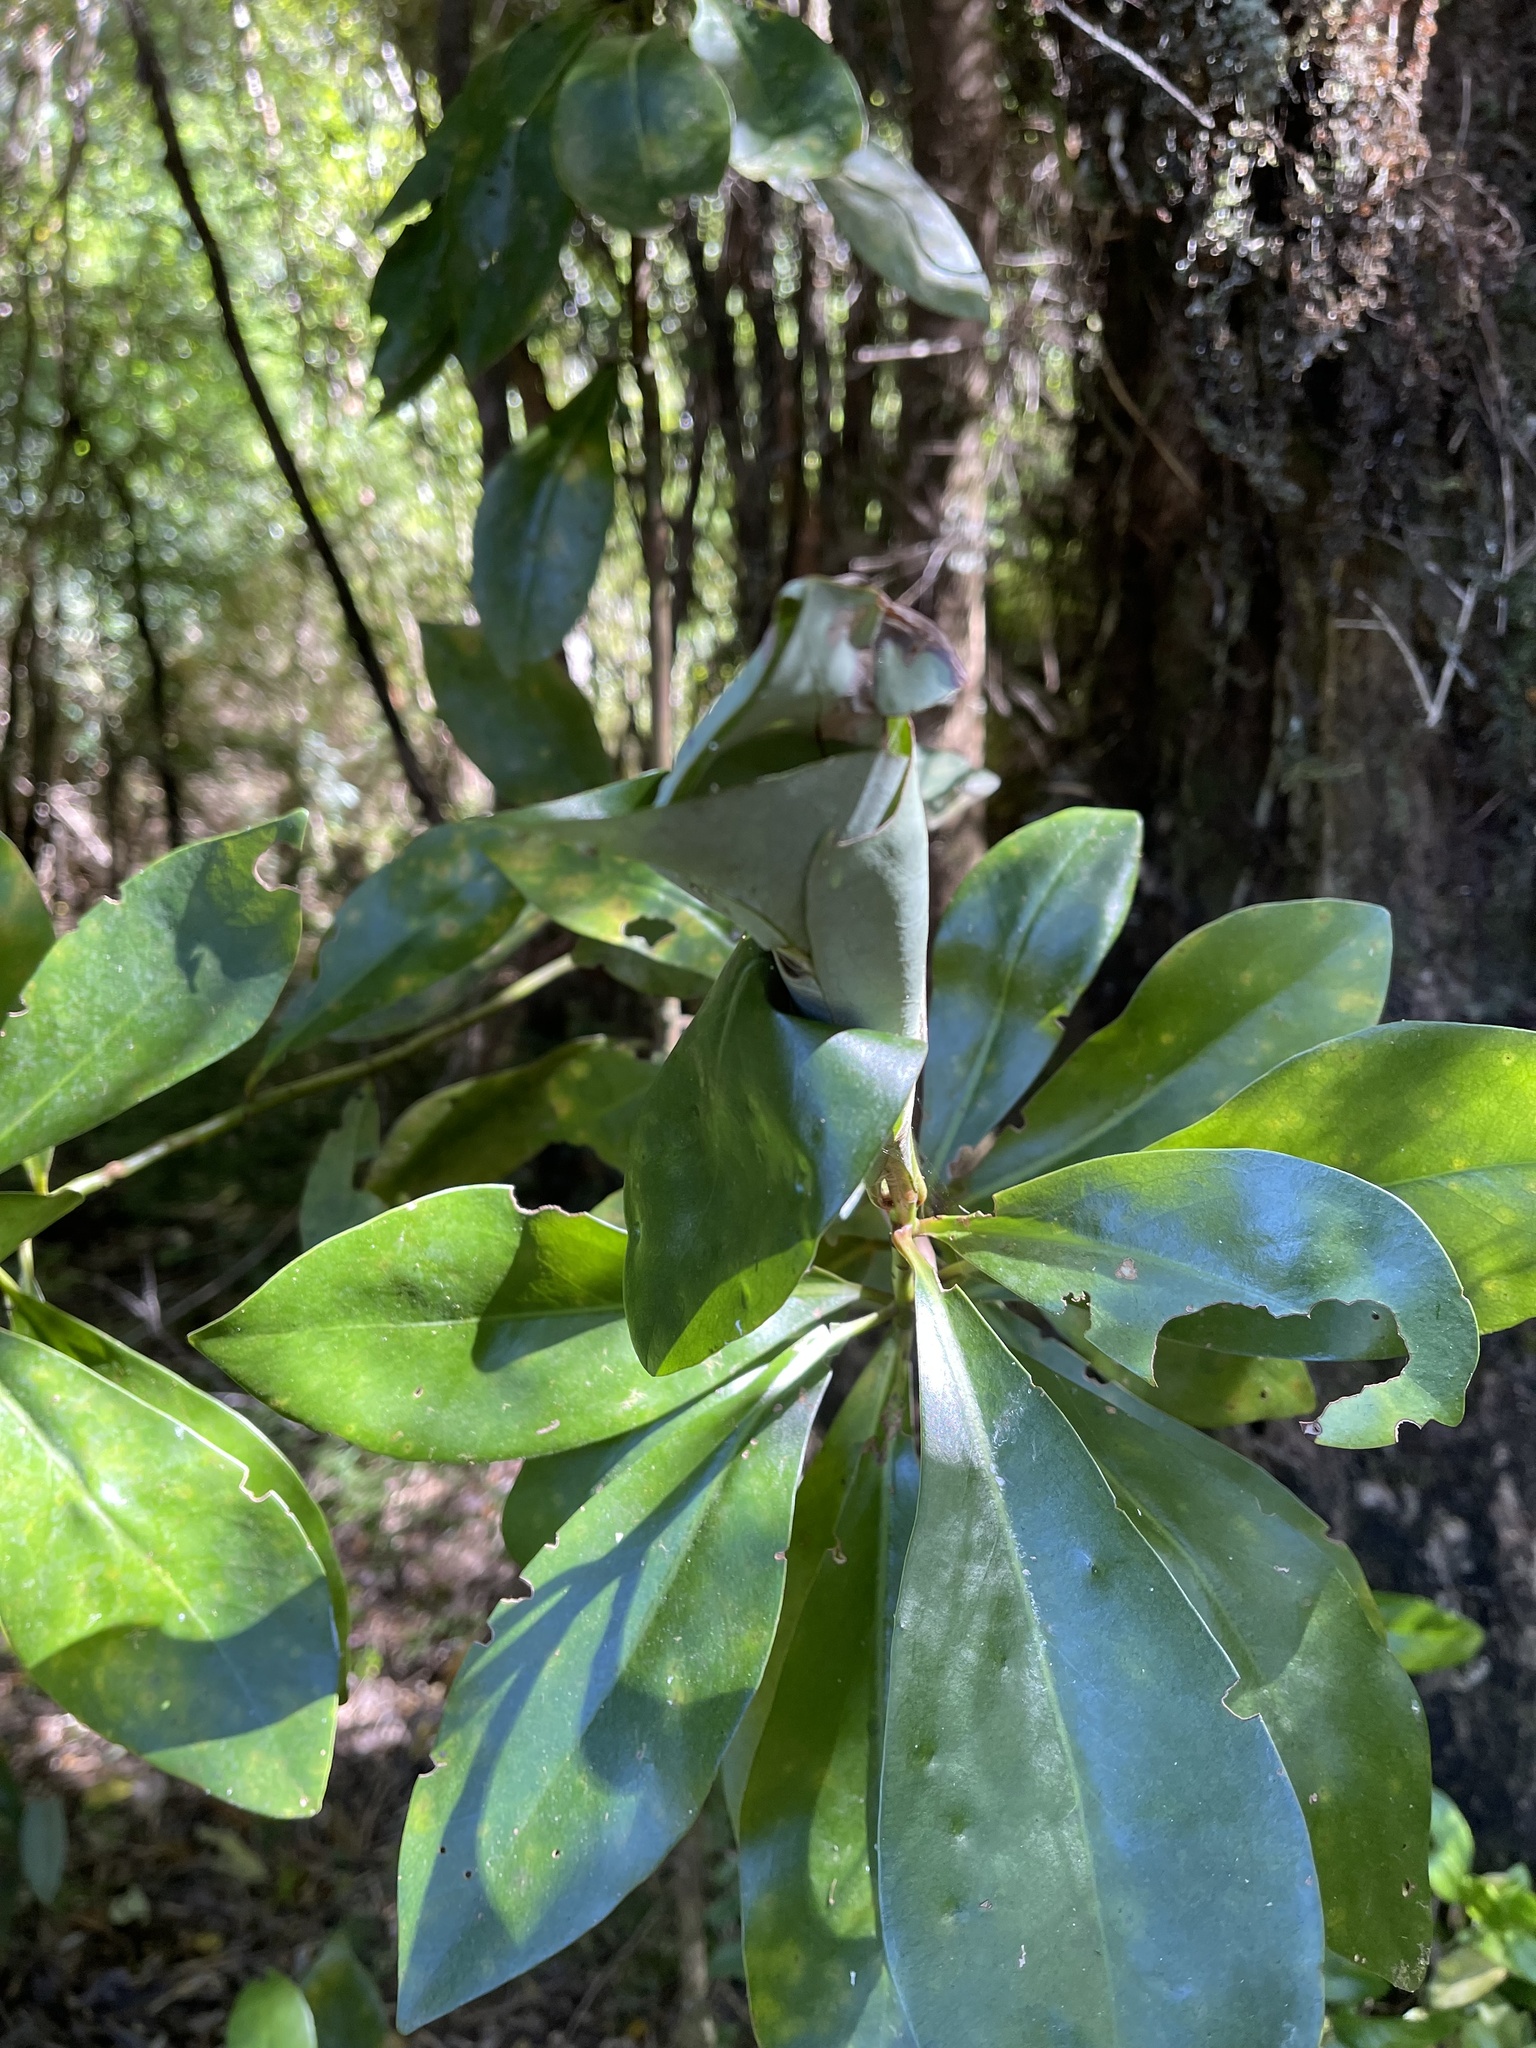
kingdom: Plantae
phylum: Tracheophyta
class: Magnoliopsida
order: Canellales
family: Winteraceae
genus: Drimys
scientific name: Drimys winteri
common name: Winter's-bark
